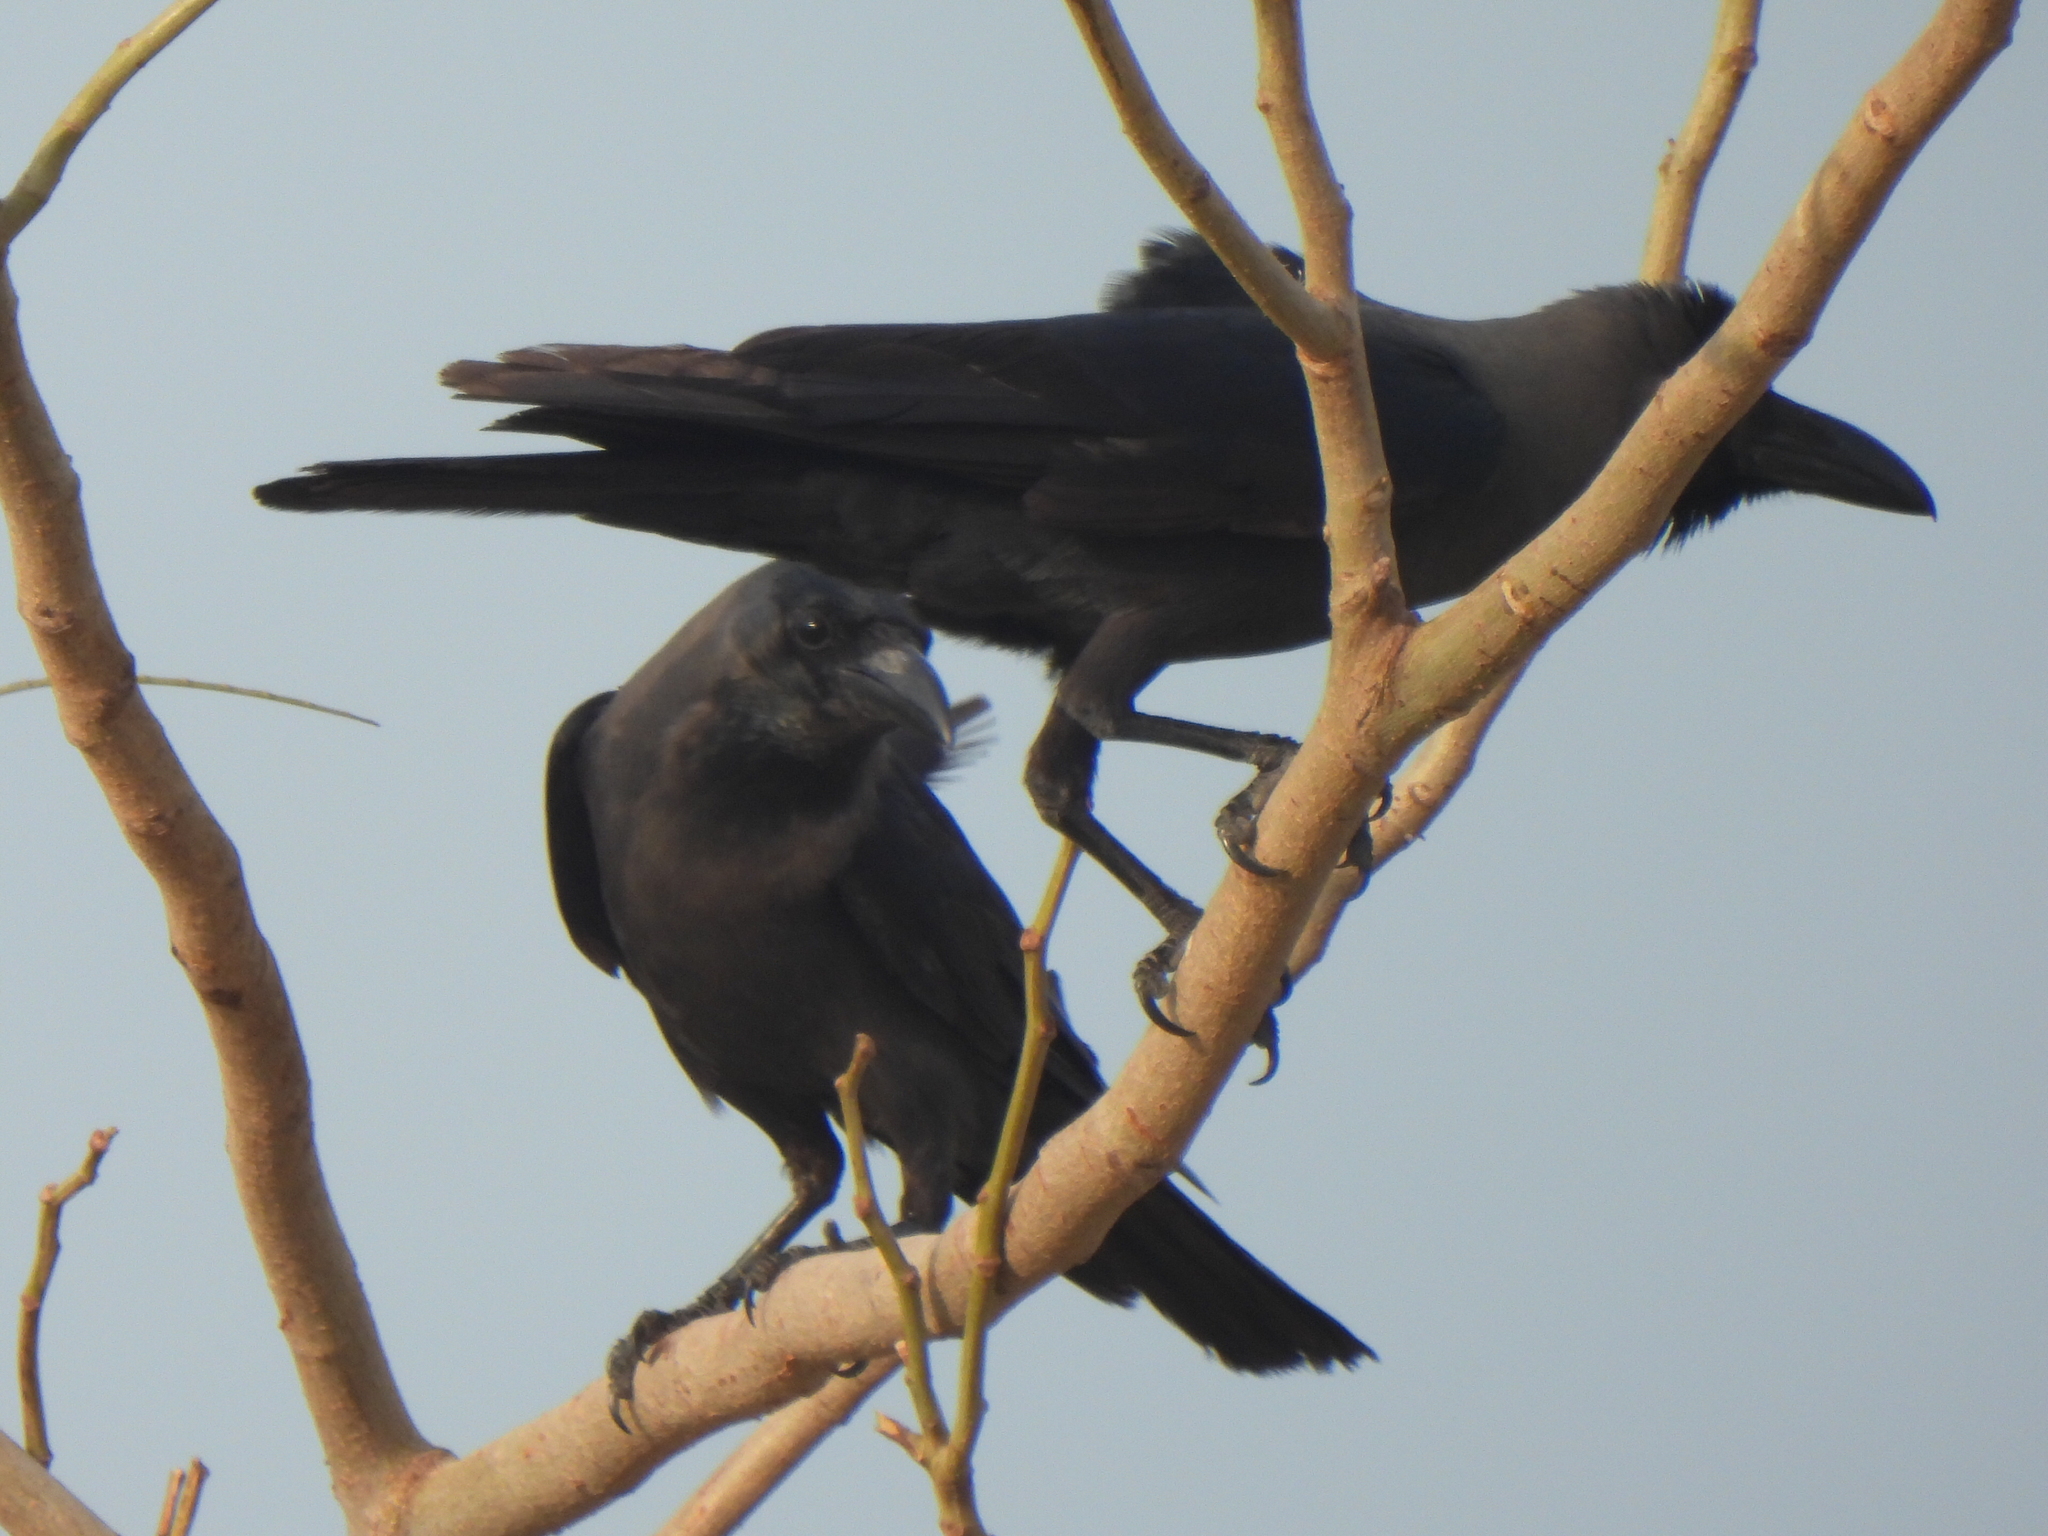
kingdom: Animalia
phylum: Chordata
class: Aves
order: Passeriformes
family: Corvidae
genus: Corvus
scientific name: Corvus splendens
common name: House crow
